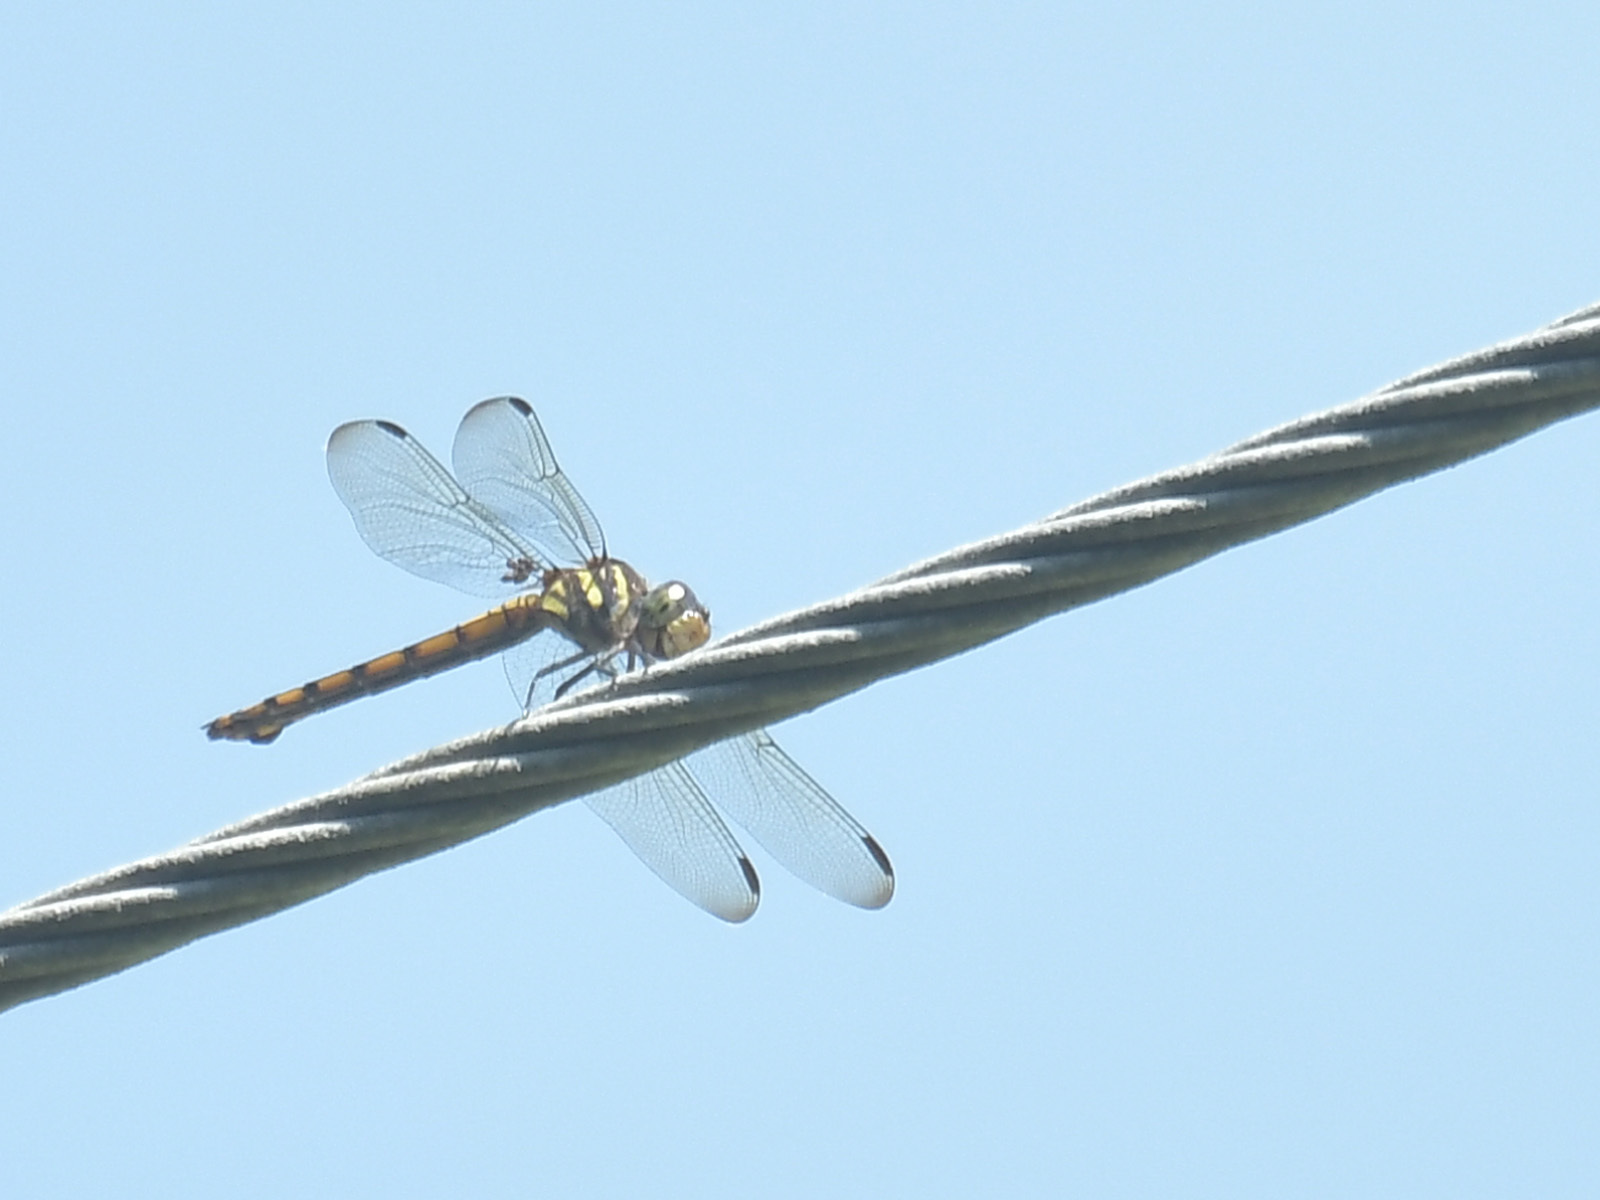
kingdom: Animalia
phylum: Arthropoda
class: Insecta
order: Odonata
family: Libellulidae
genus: Potamarcha
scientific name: Potamarcha congener
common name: Blue chaser
